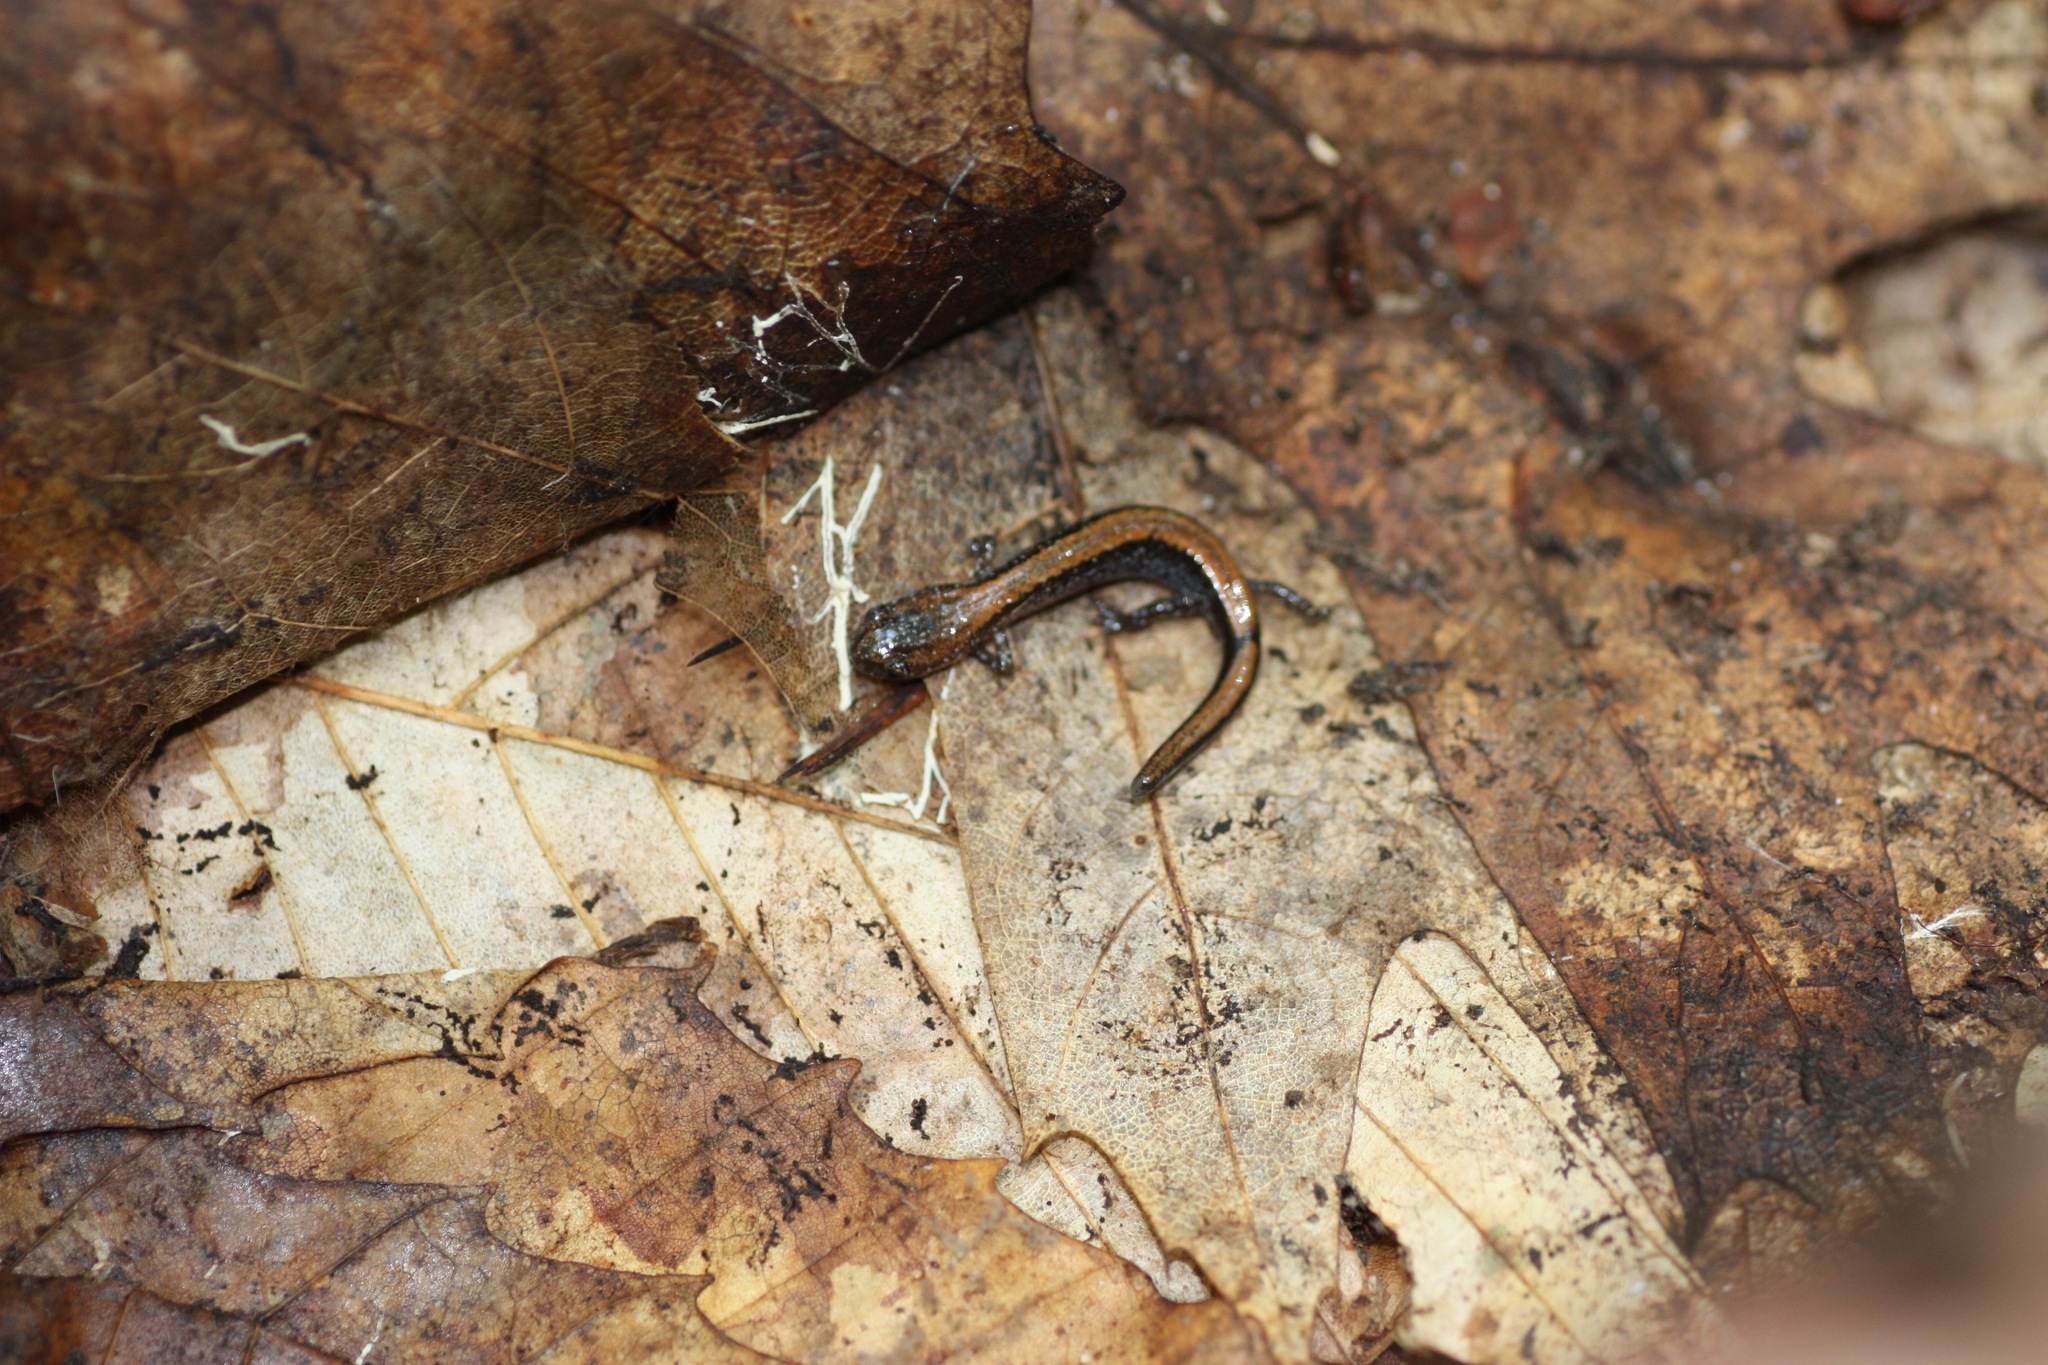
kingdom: Animalia
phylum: Chordata
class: Amphibia
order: Caudata
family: Plethodontidae
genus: Plethodon
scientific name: Plethodon cinereus
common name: Redback salamander
